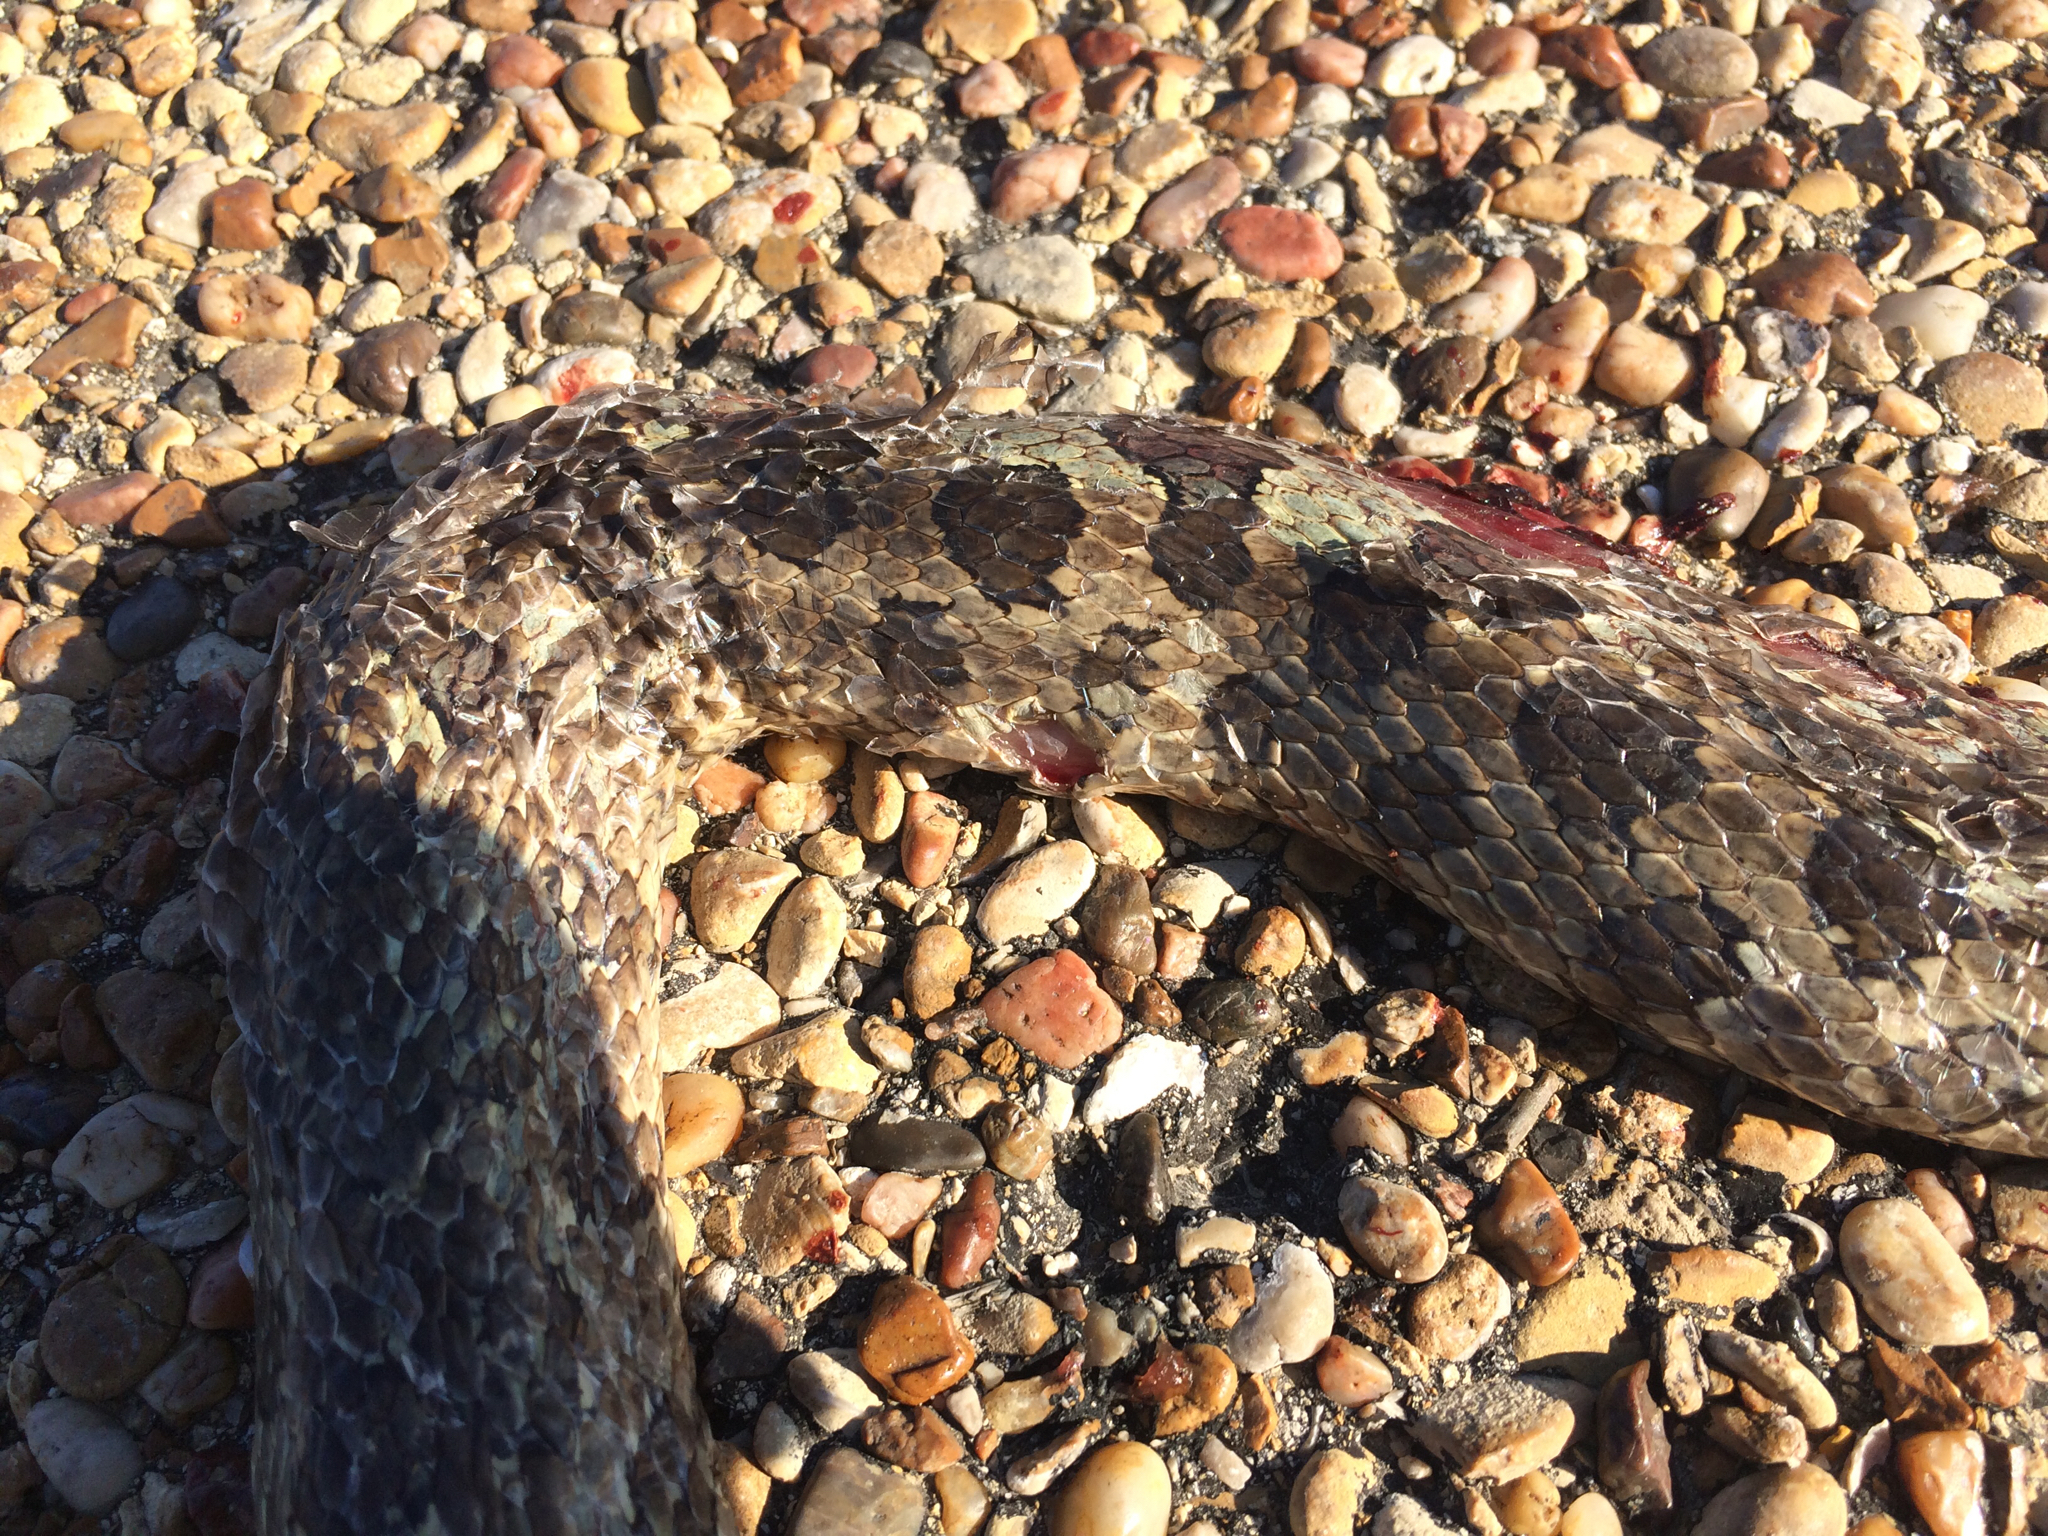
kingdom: Animalia
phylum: Chordata
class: Squamata
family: Colubridae
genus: Lampropeltis
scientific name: Lampropeltis calligaster
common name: Prairie kingsnake
